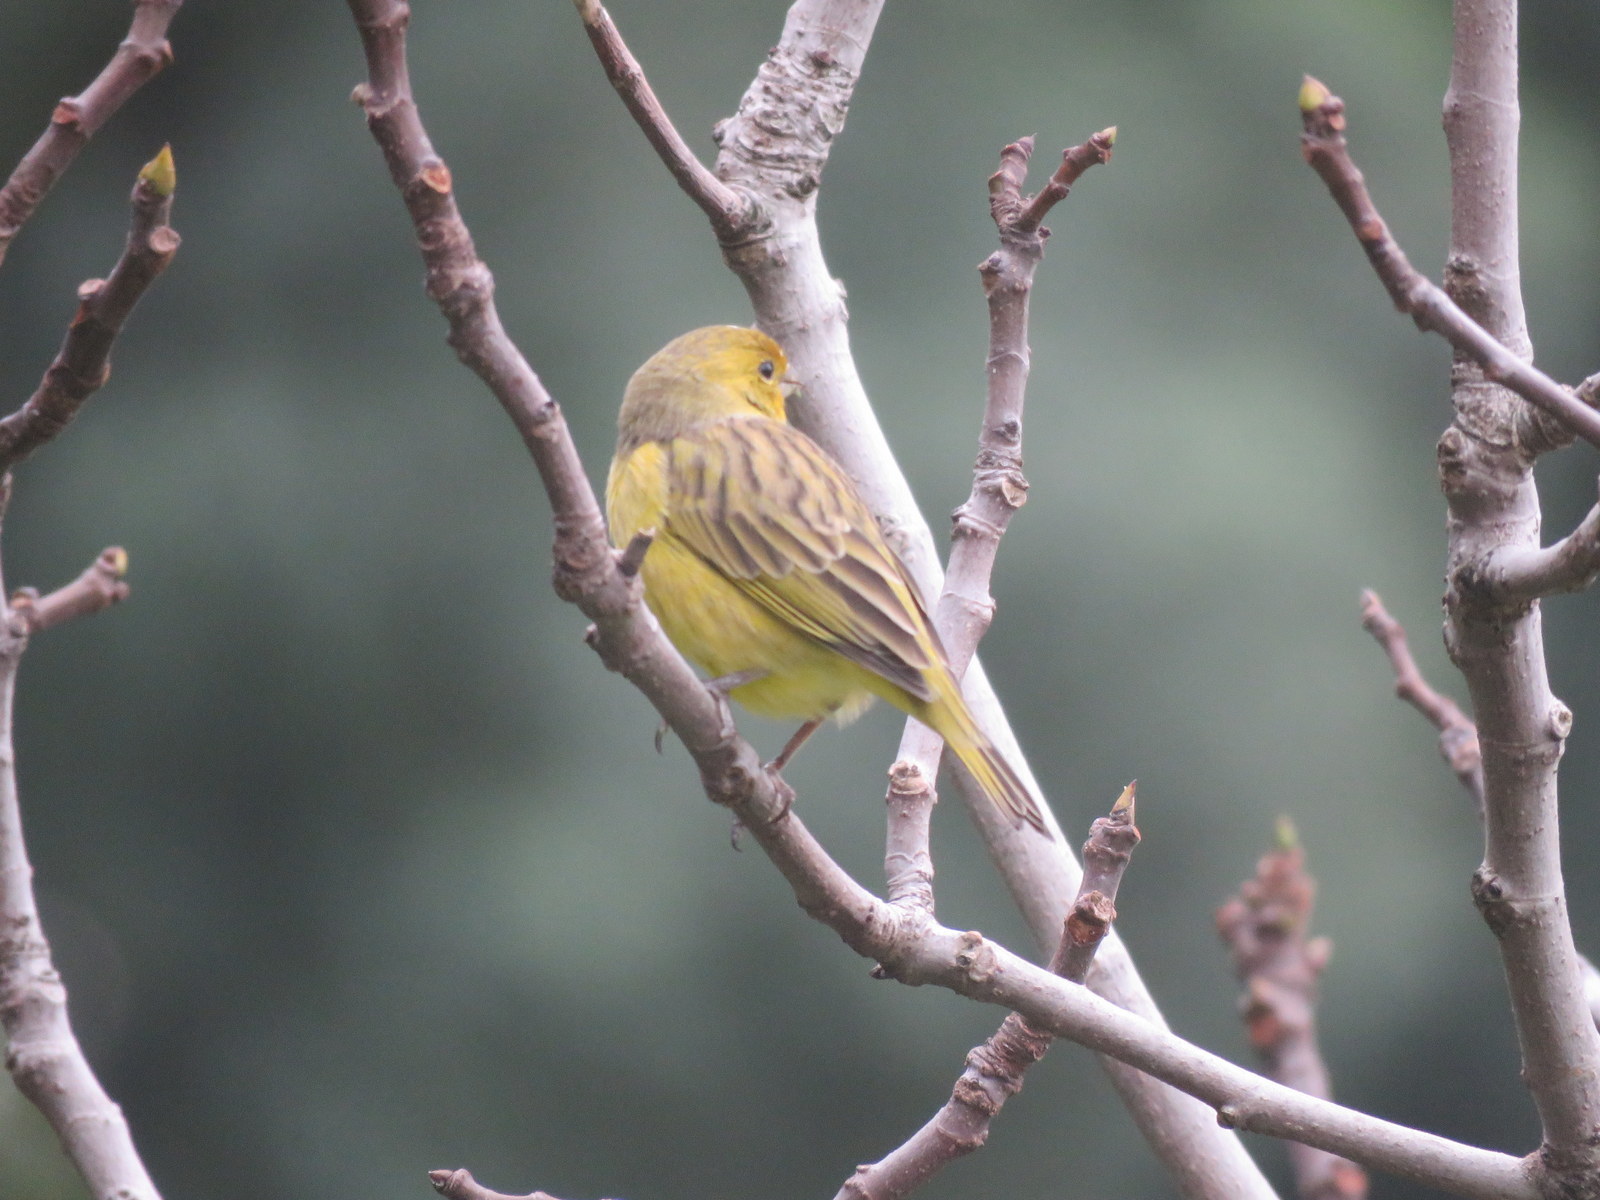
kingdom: Animalia
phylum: Chordata
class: Aves
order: Passeriformes
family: Thraupidae
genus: Sicalis
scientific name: Sicalis flaveola
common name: Saffron finch
